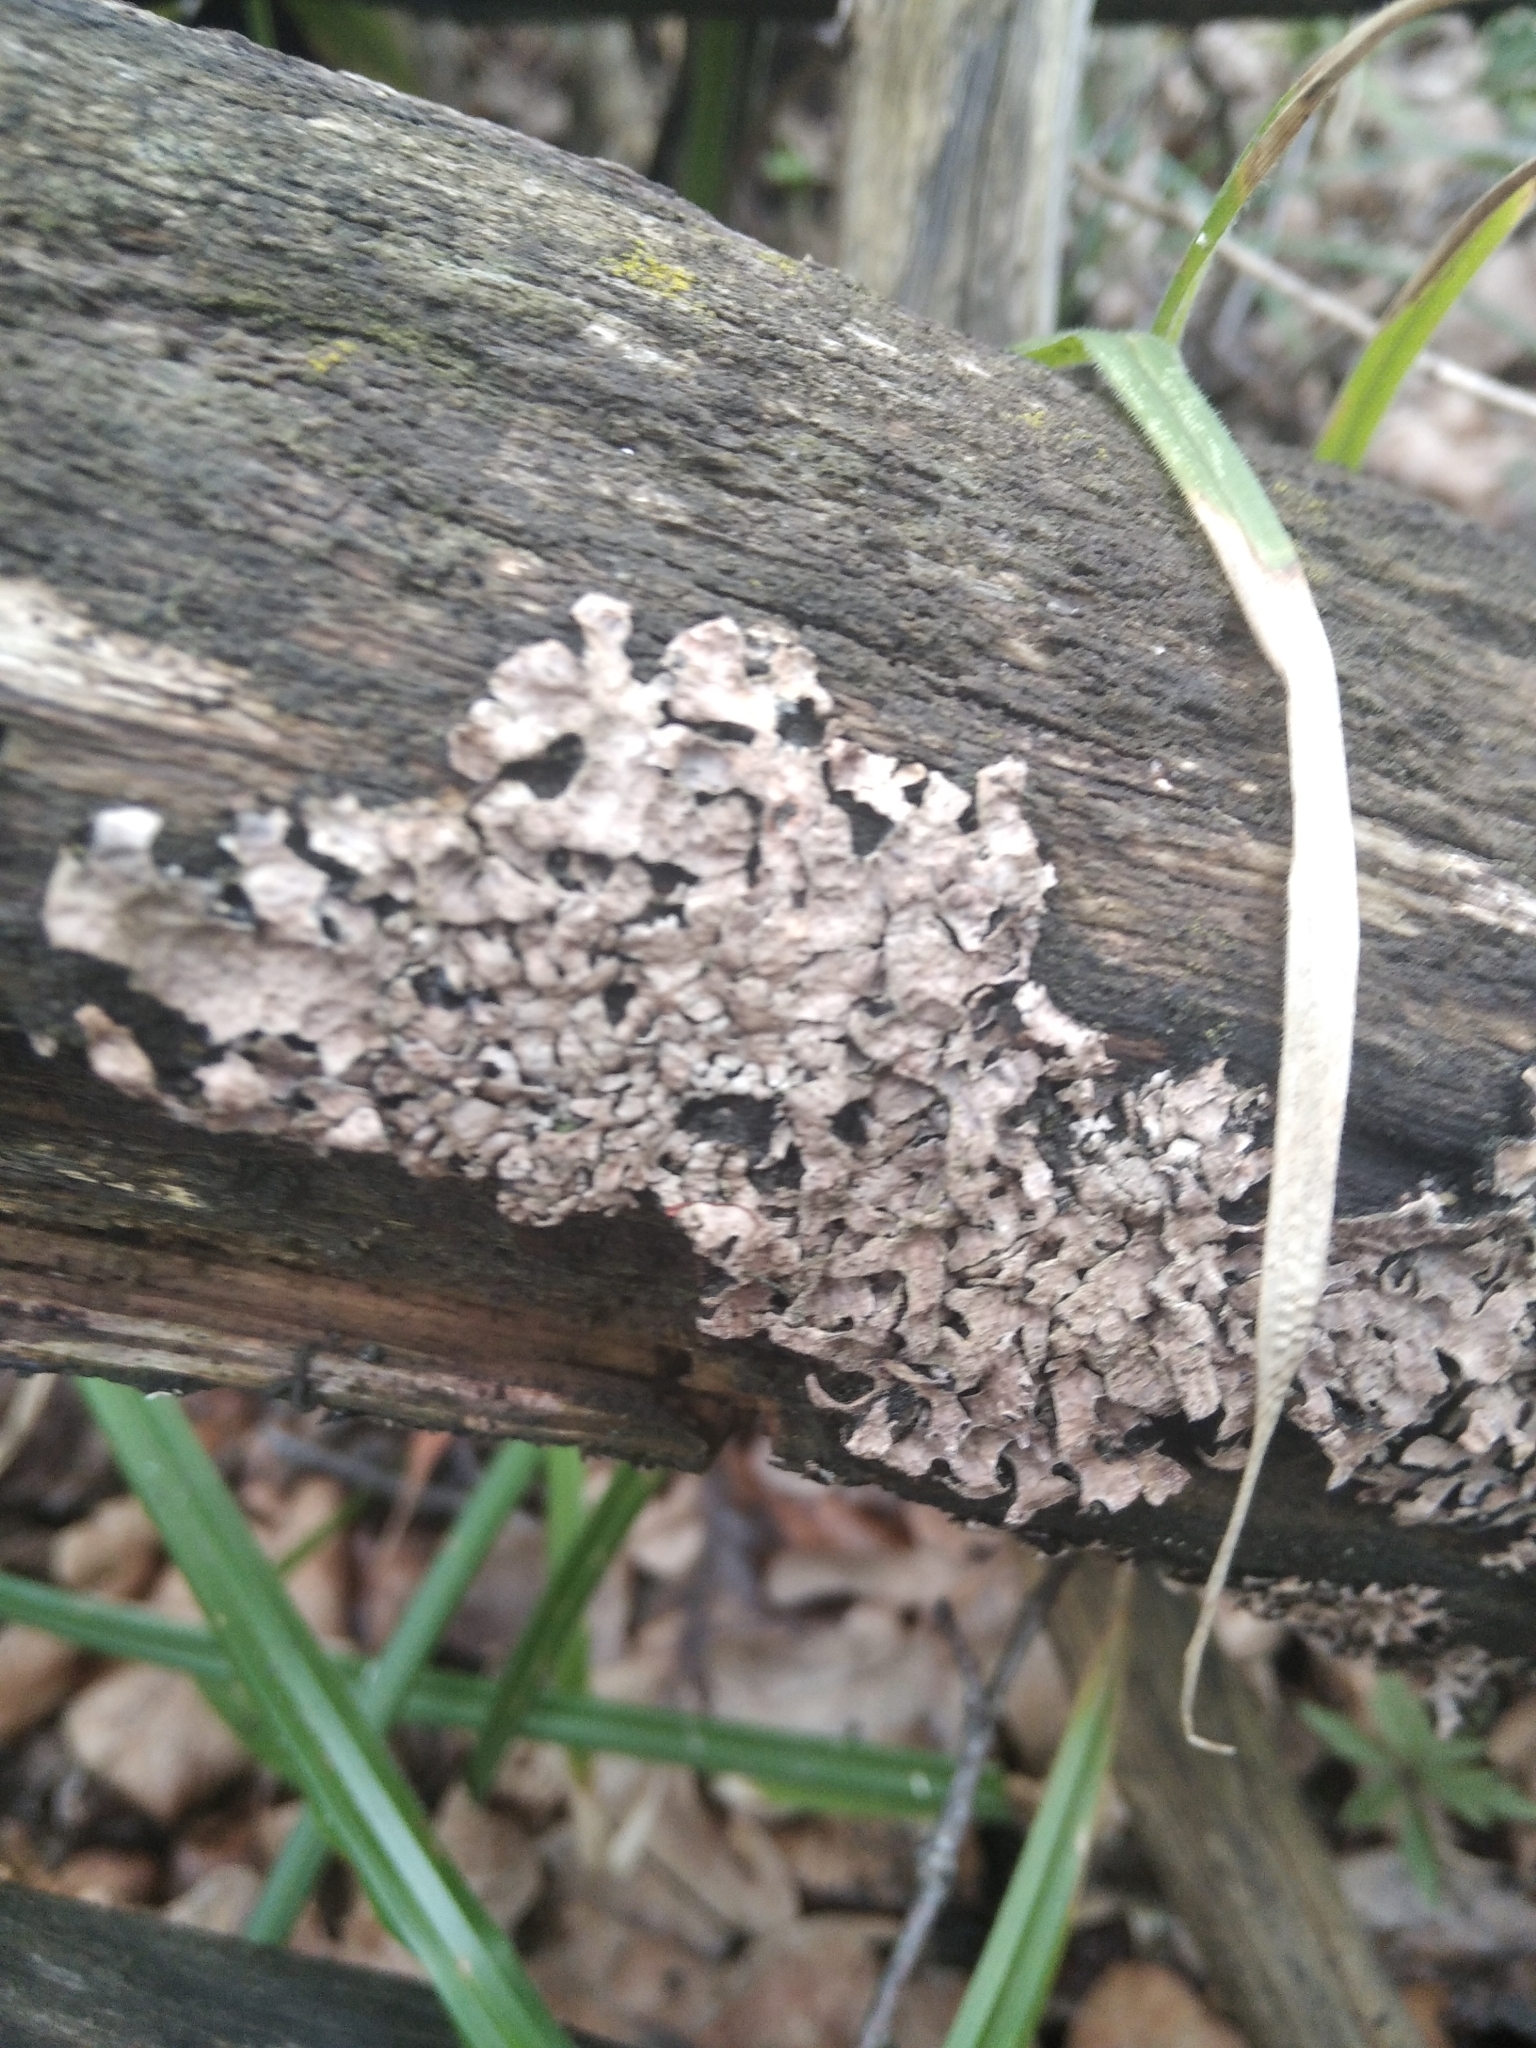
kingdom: Fungi
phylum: Ascomycota
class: Lecanoromycetes
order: Lecanorales
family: Parmeliaceae
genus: Parmelia
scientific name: Parmelia sulcata
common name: Netted shield lichen
